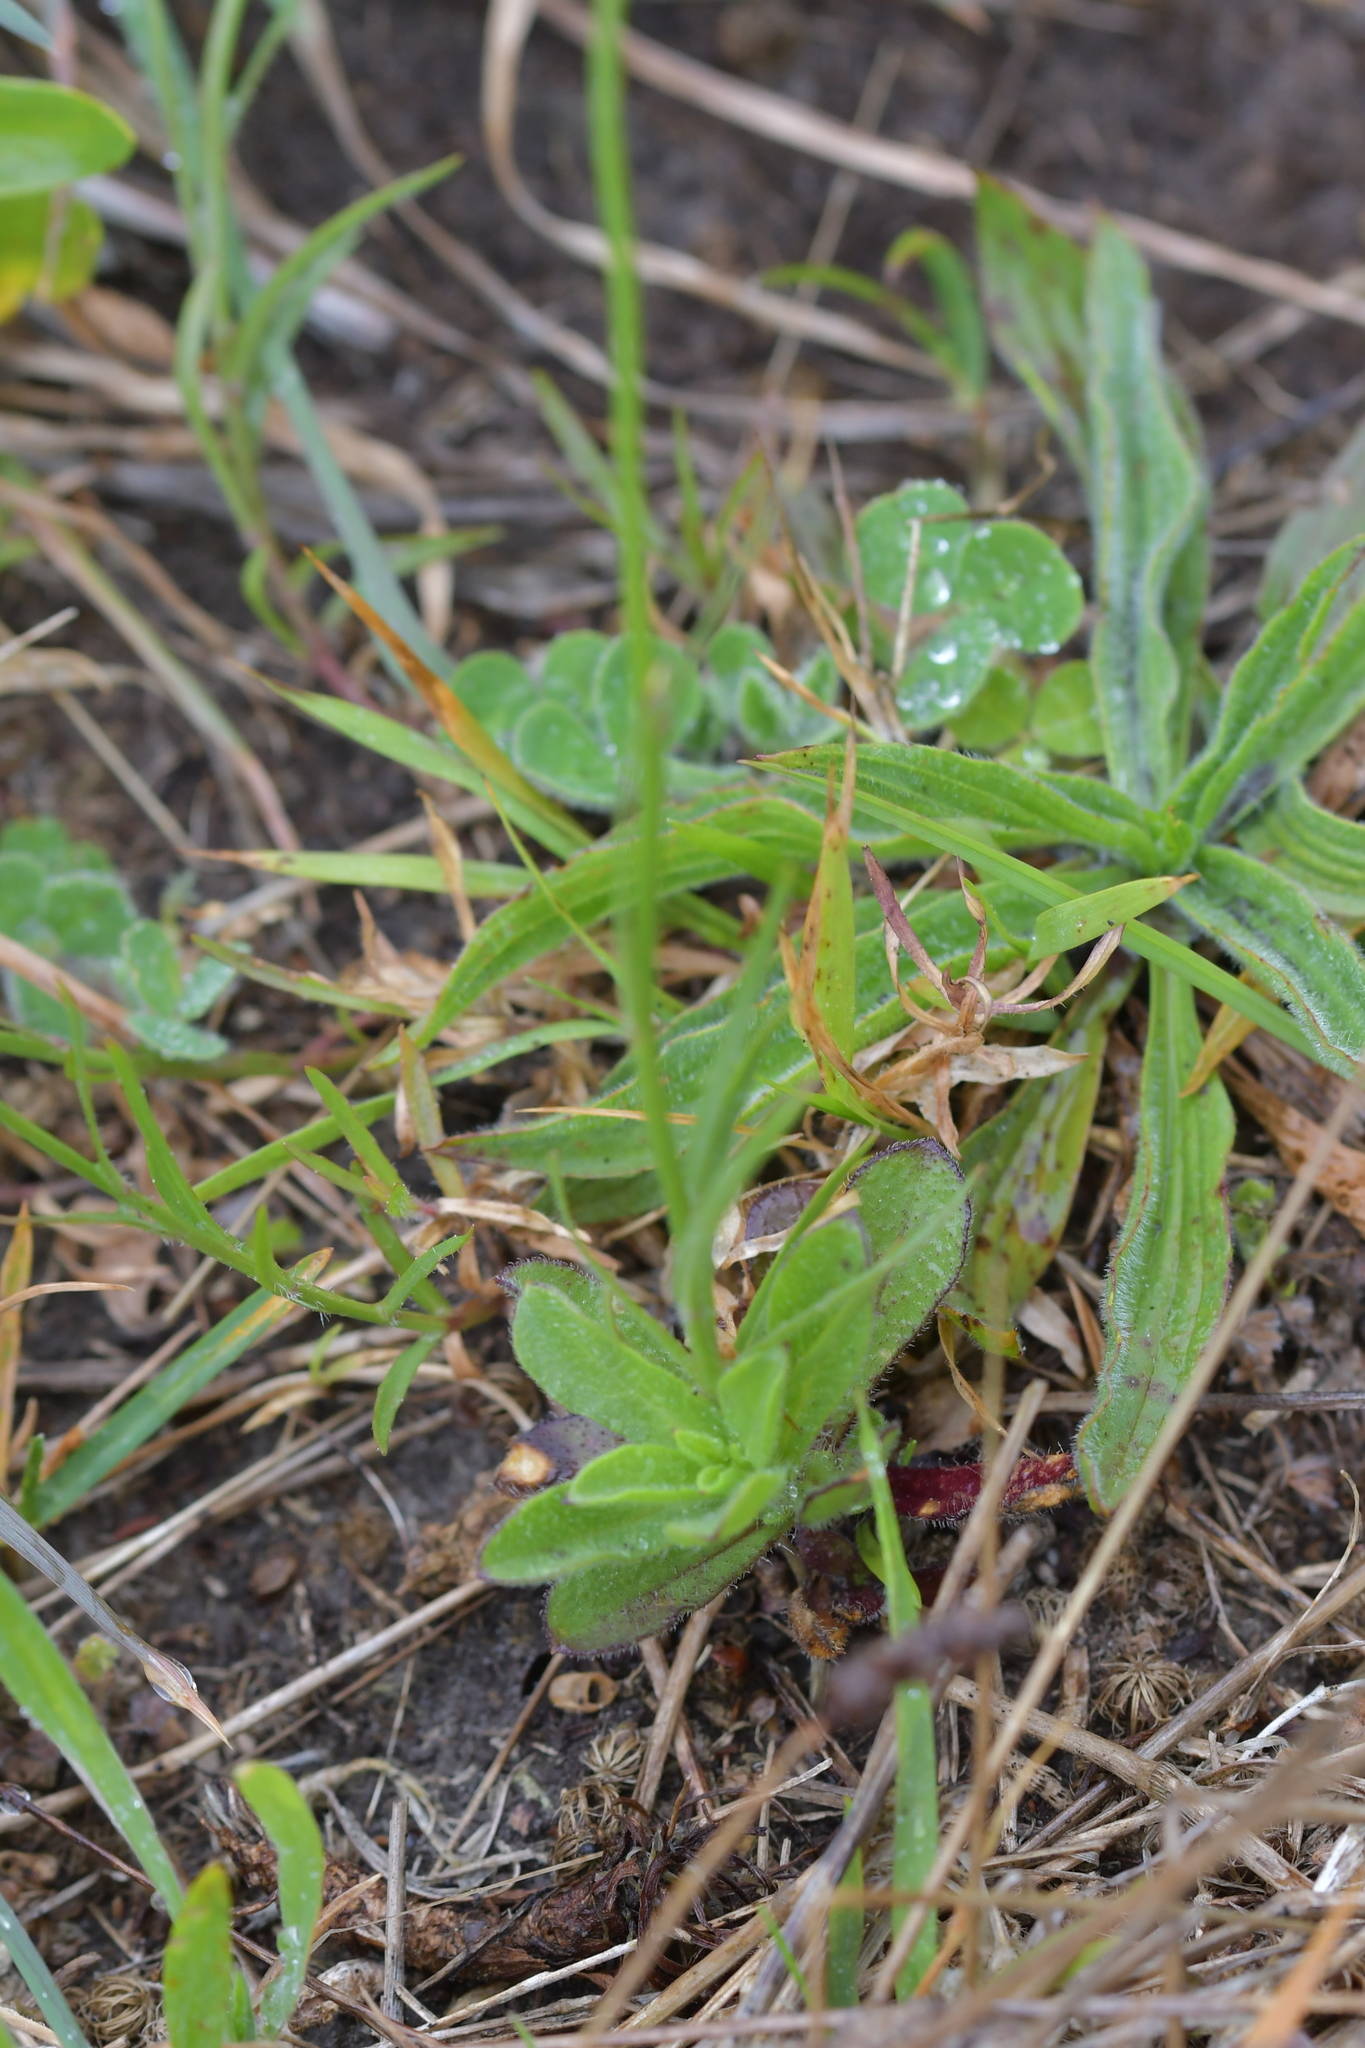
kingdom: Plantae
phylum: Tracheophyta
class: Magnoliopsida
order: Asterales
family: Campanulaceae
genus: Wahlenbergia
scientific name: Wahlenbergia violacea
